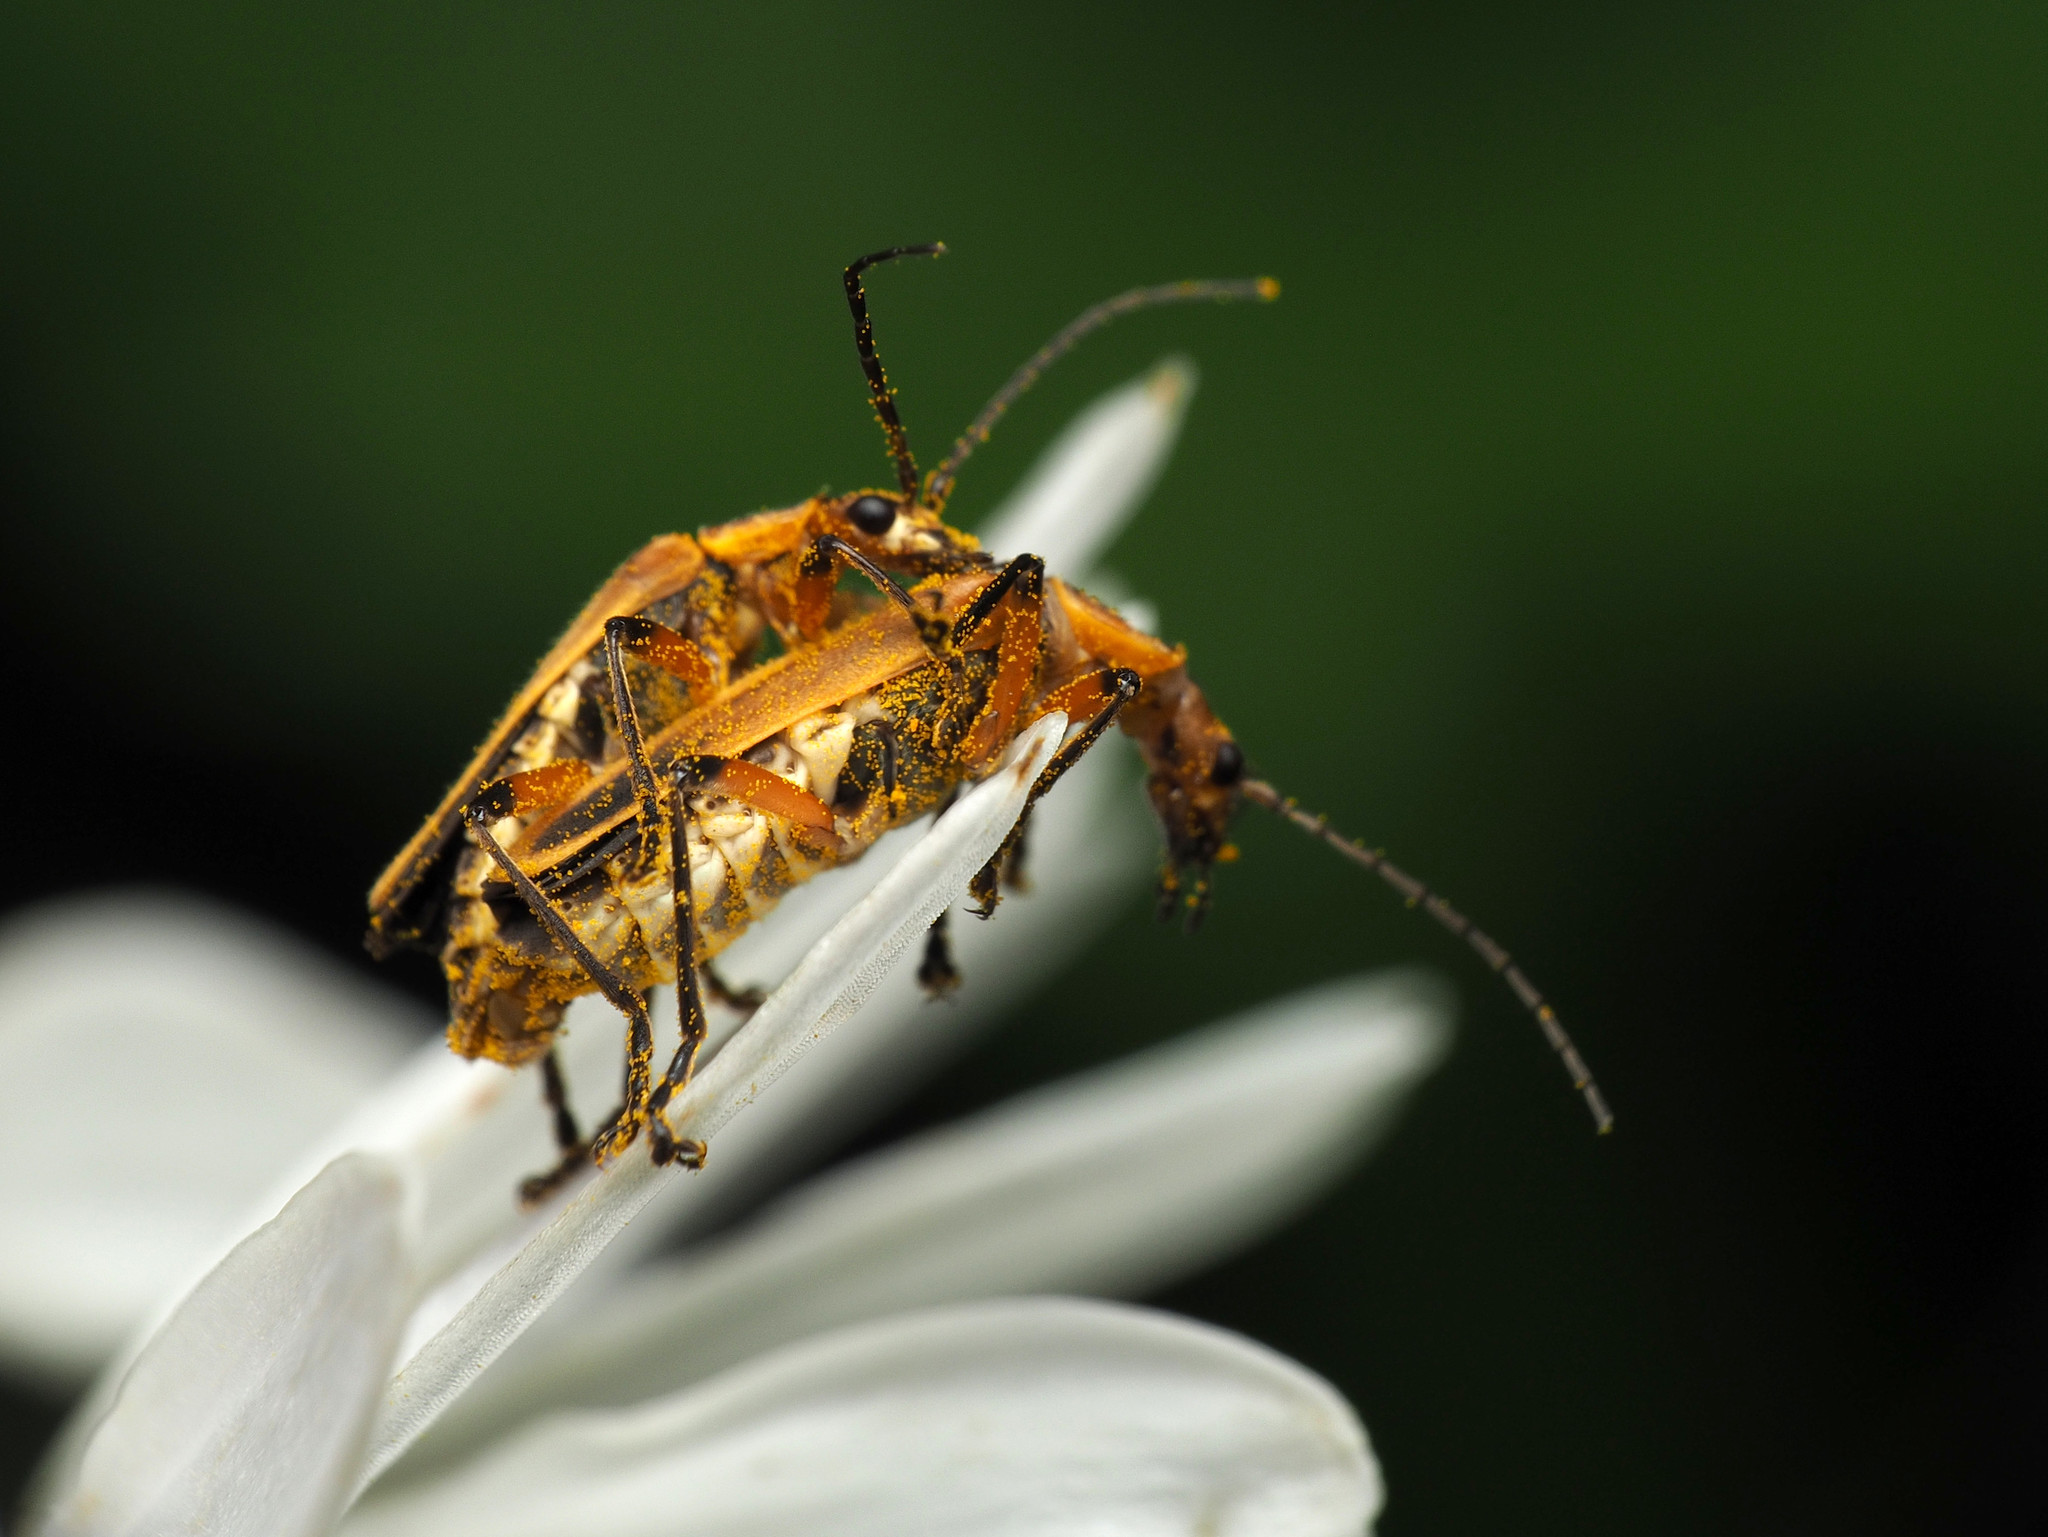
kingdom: Animalia
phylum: Arthropoda
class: Insecta
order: Coleoptera
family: Cantharidae
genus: Chauliognathus
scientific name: Chauliognathus marginatus
